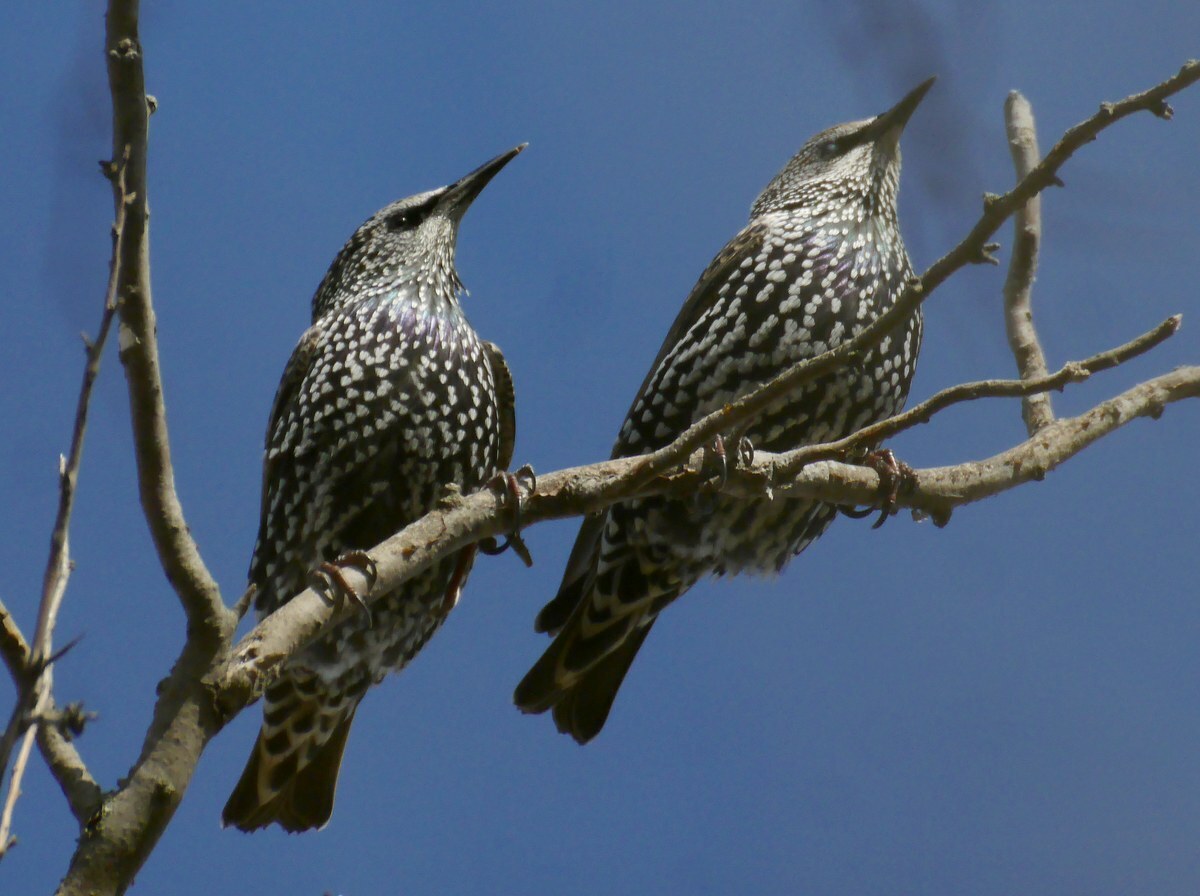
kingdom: Animalia
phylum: Chordata
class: Aves
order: Passeriformes
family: Sturnidae
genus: Sturnus
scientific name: Sturnus vulgaris
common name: Common starling
